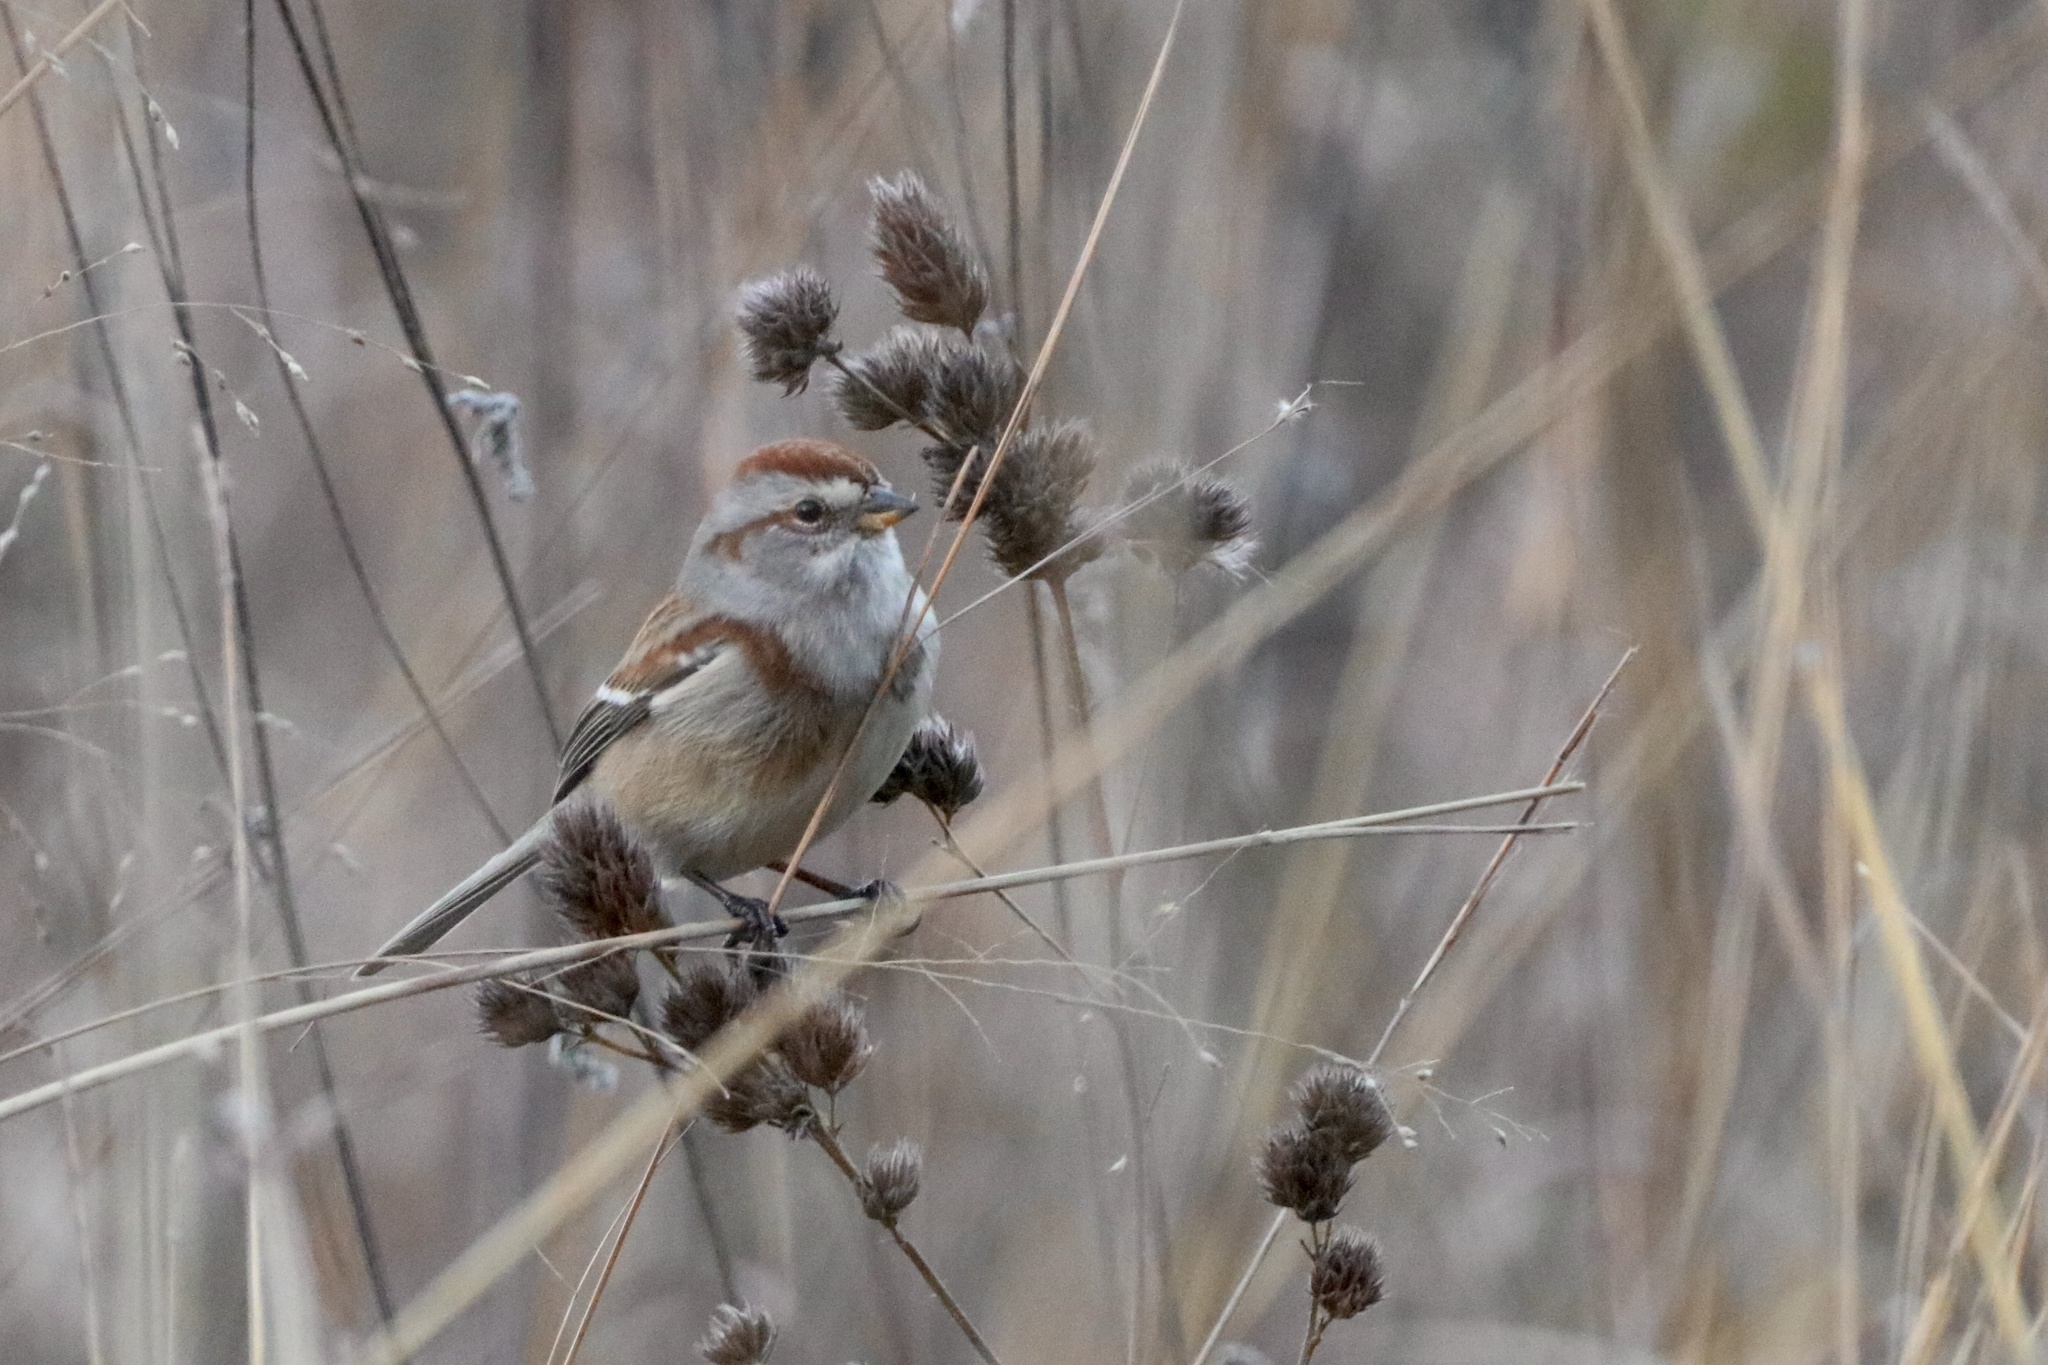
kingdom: Animalia
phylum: Chordata
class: Aves
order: Passeriformes
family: Passerellidae
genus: Spizelloides
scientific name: Spizelloides arborea
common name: American tree sparrow
